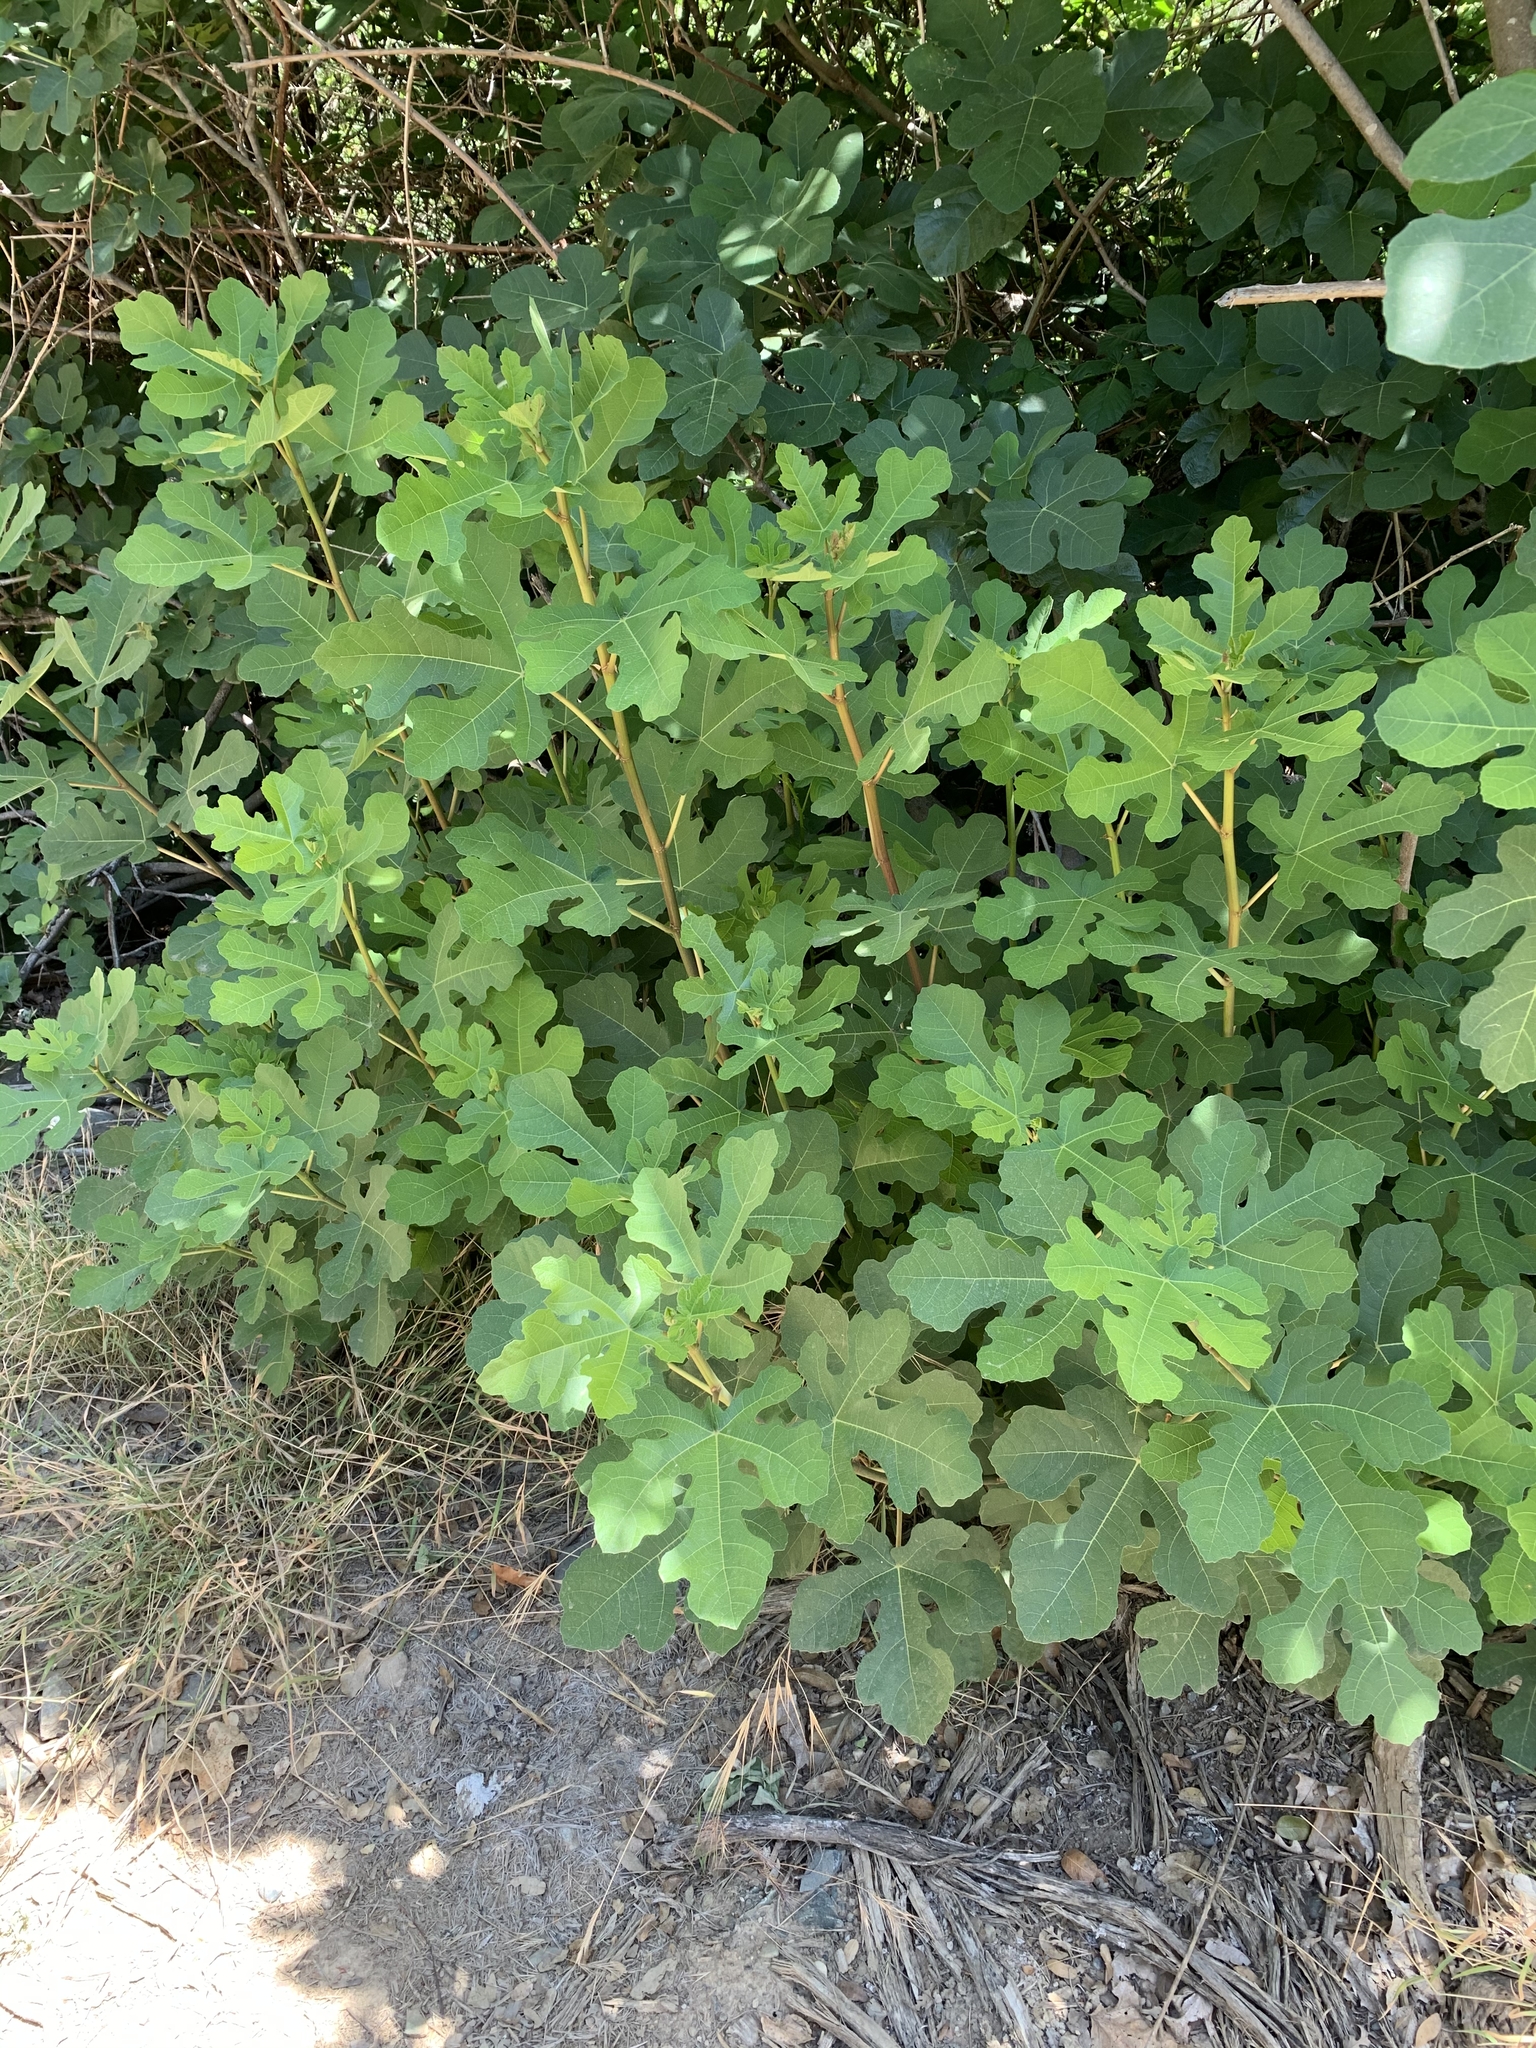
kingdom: Plantae
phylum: Tracheophyta
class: Magnoliopsida
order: Rosales
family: Moraceae
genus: Ficus
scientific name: Ficus carica
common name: Fig
